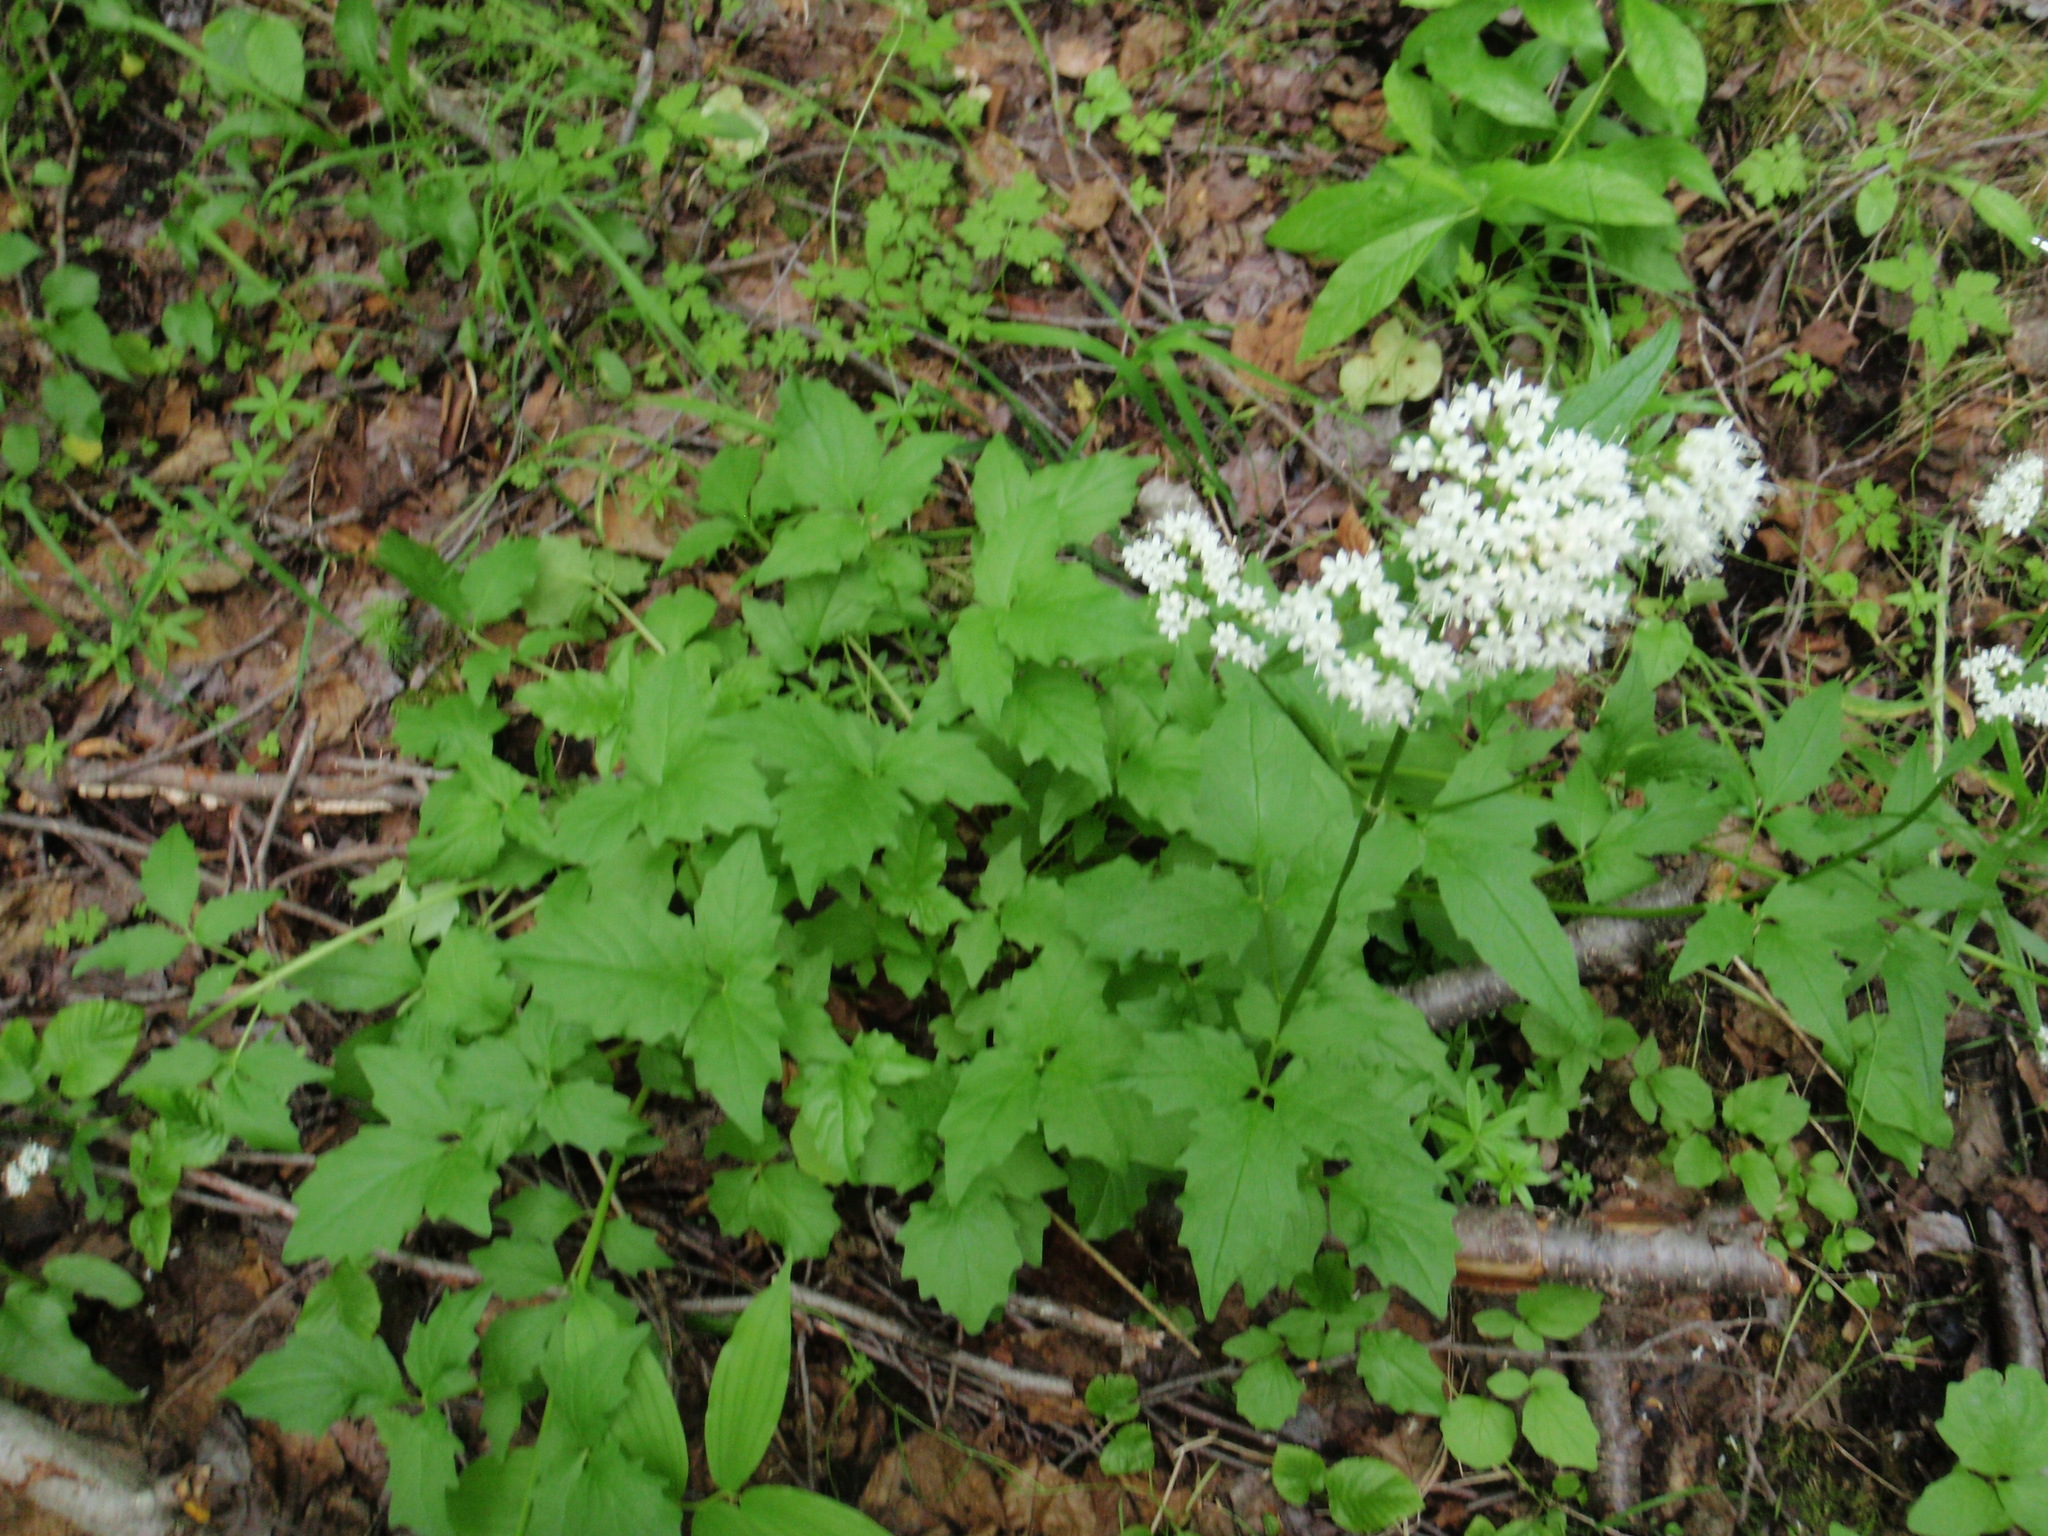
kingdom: Plantae
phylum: Tracheophyta
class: Magnoliopsida
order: Dipsacales
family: Caprifoliaceae
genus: Valeriana
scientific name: Valeriana sitchensis
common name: Pacific valerian
